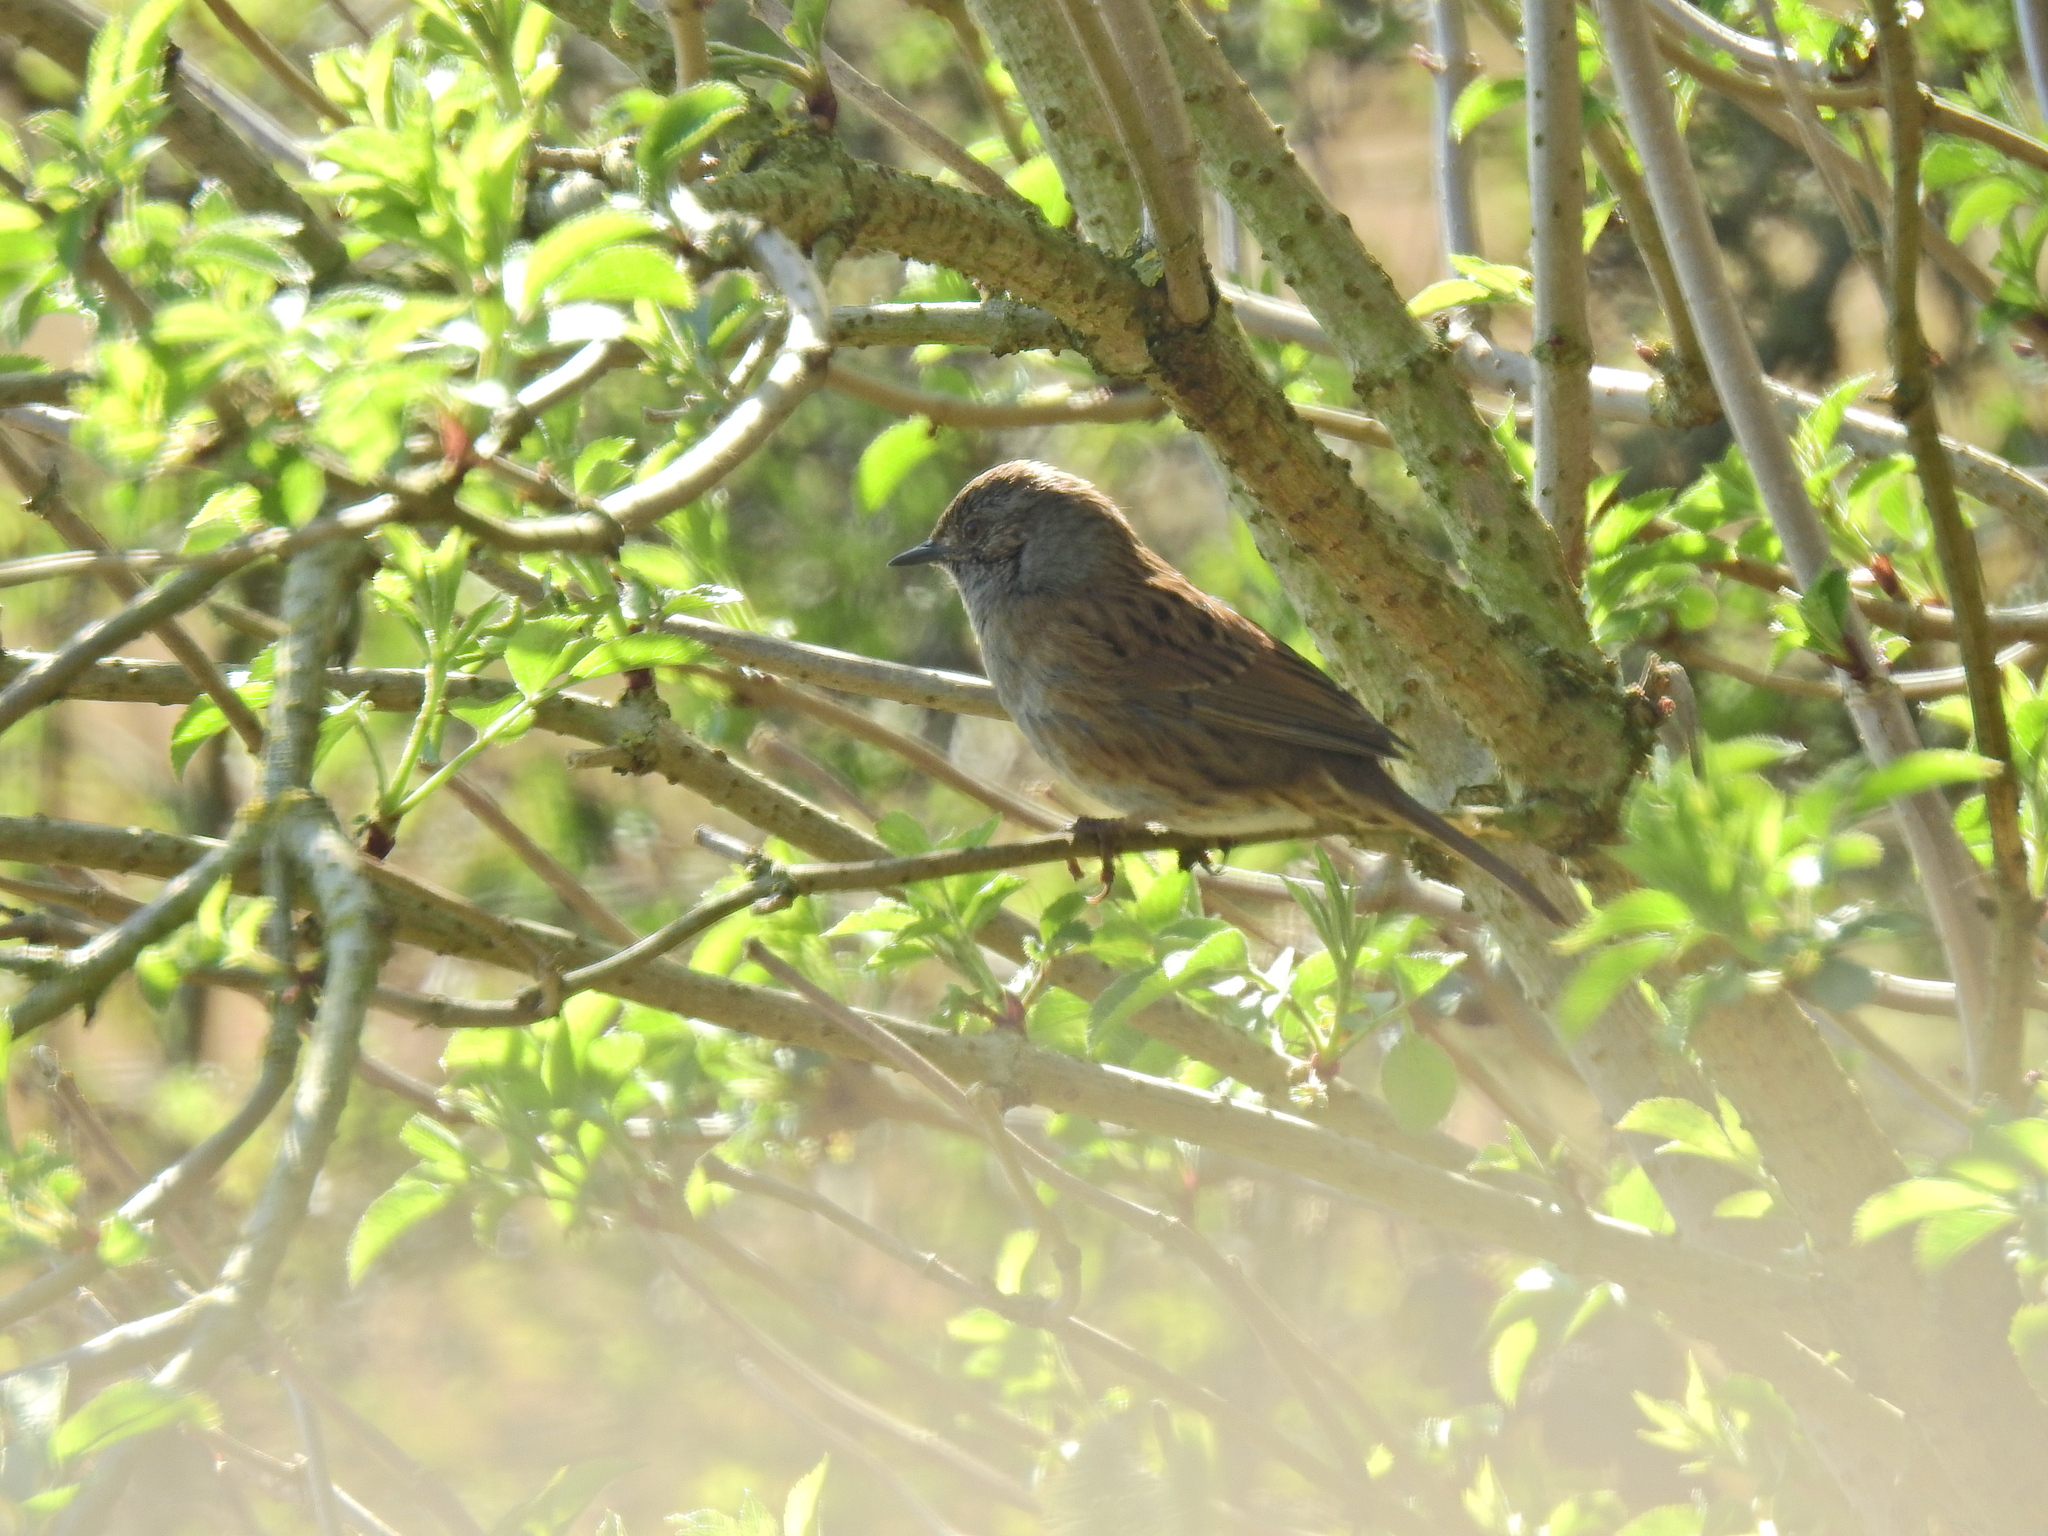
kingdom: Animalia
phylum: Chordata
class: Aves
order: Passeriformes
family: Prunellidae
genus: Prunella
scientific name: Prunella modularis
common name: Dunnock
